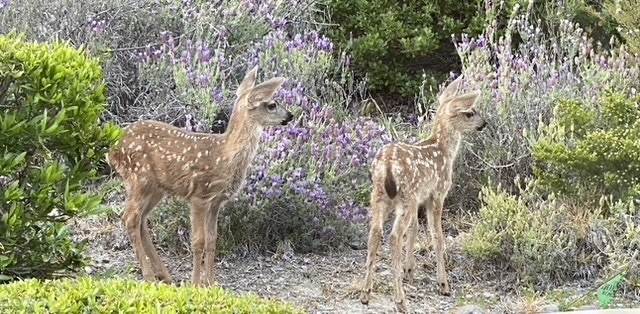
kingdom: Animalia
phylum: Chordata
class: Mammalia
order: Artiodactyla
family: Cervidae
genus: Odocoileus
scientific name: Odocoileus hemionus
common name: Mule deer
